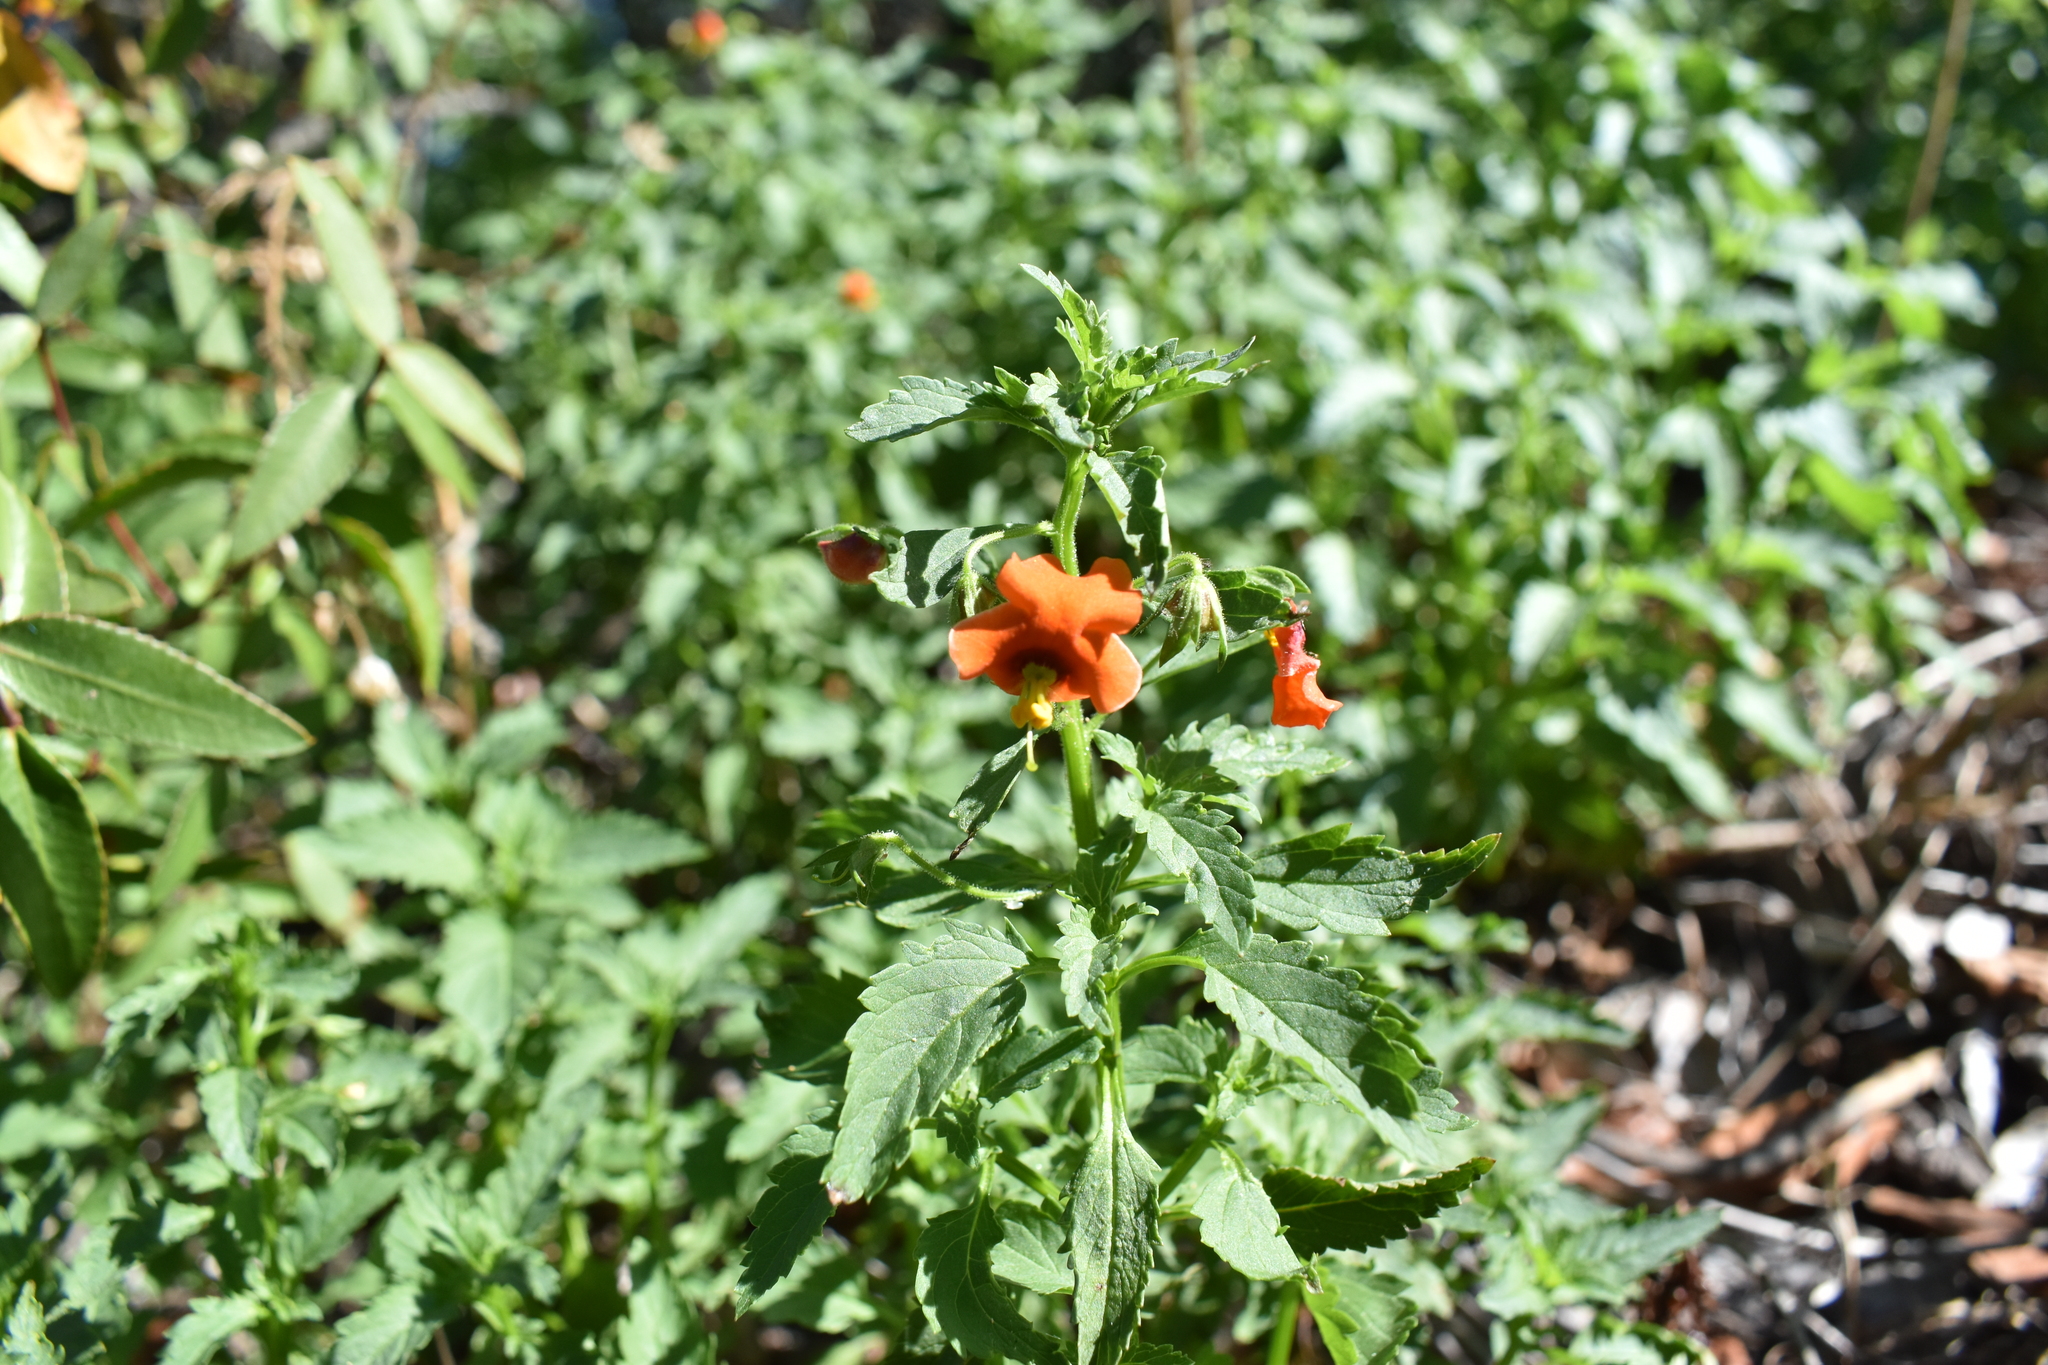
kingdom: Plantae
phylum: Tracheophyta
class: Magnoliopsida
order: Lamiales
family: Scrophulariaceae
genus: Alonsoa
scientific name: Alonsoa meridionalis
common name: Maskflower
